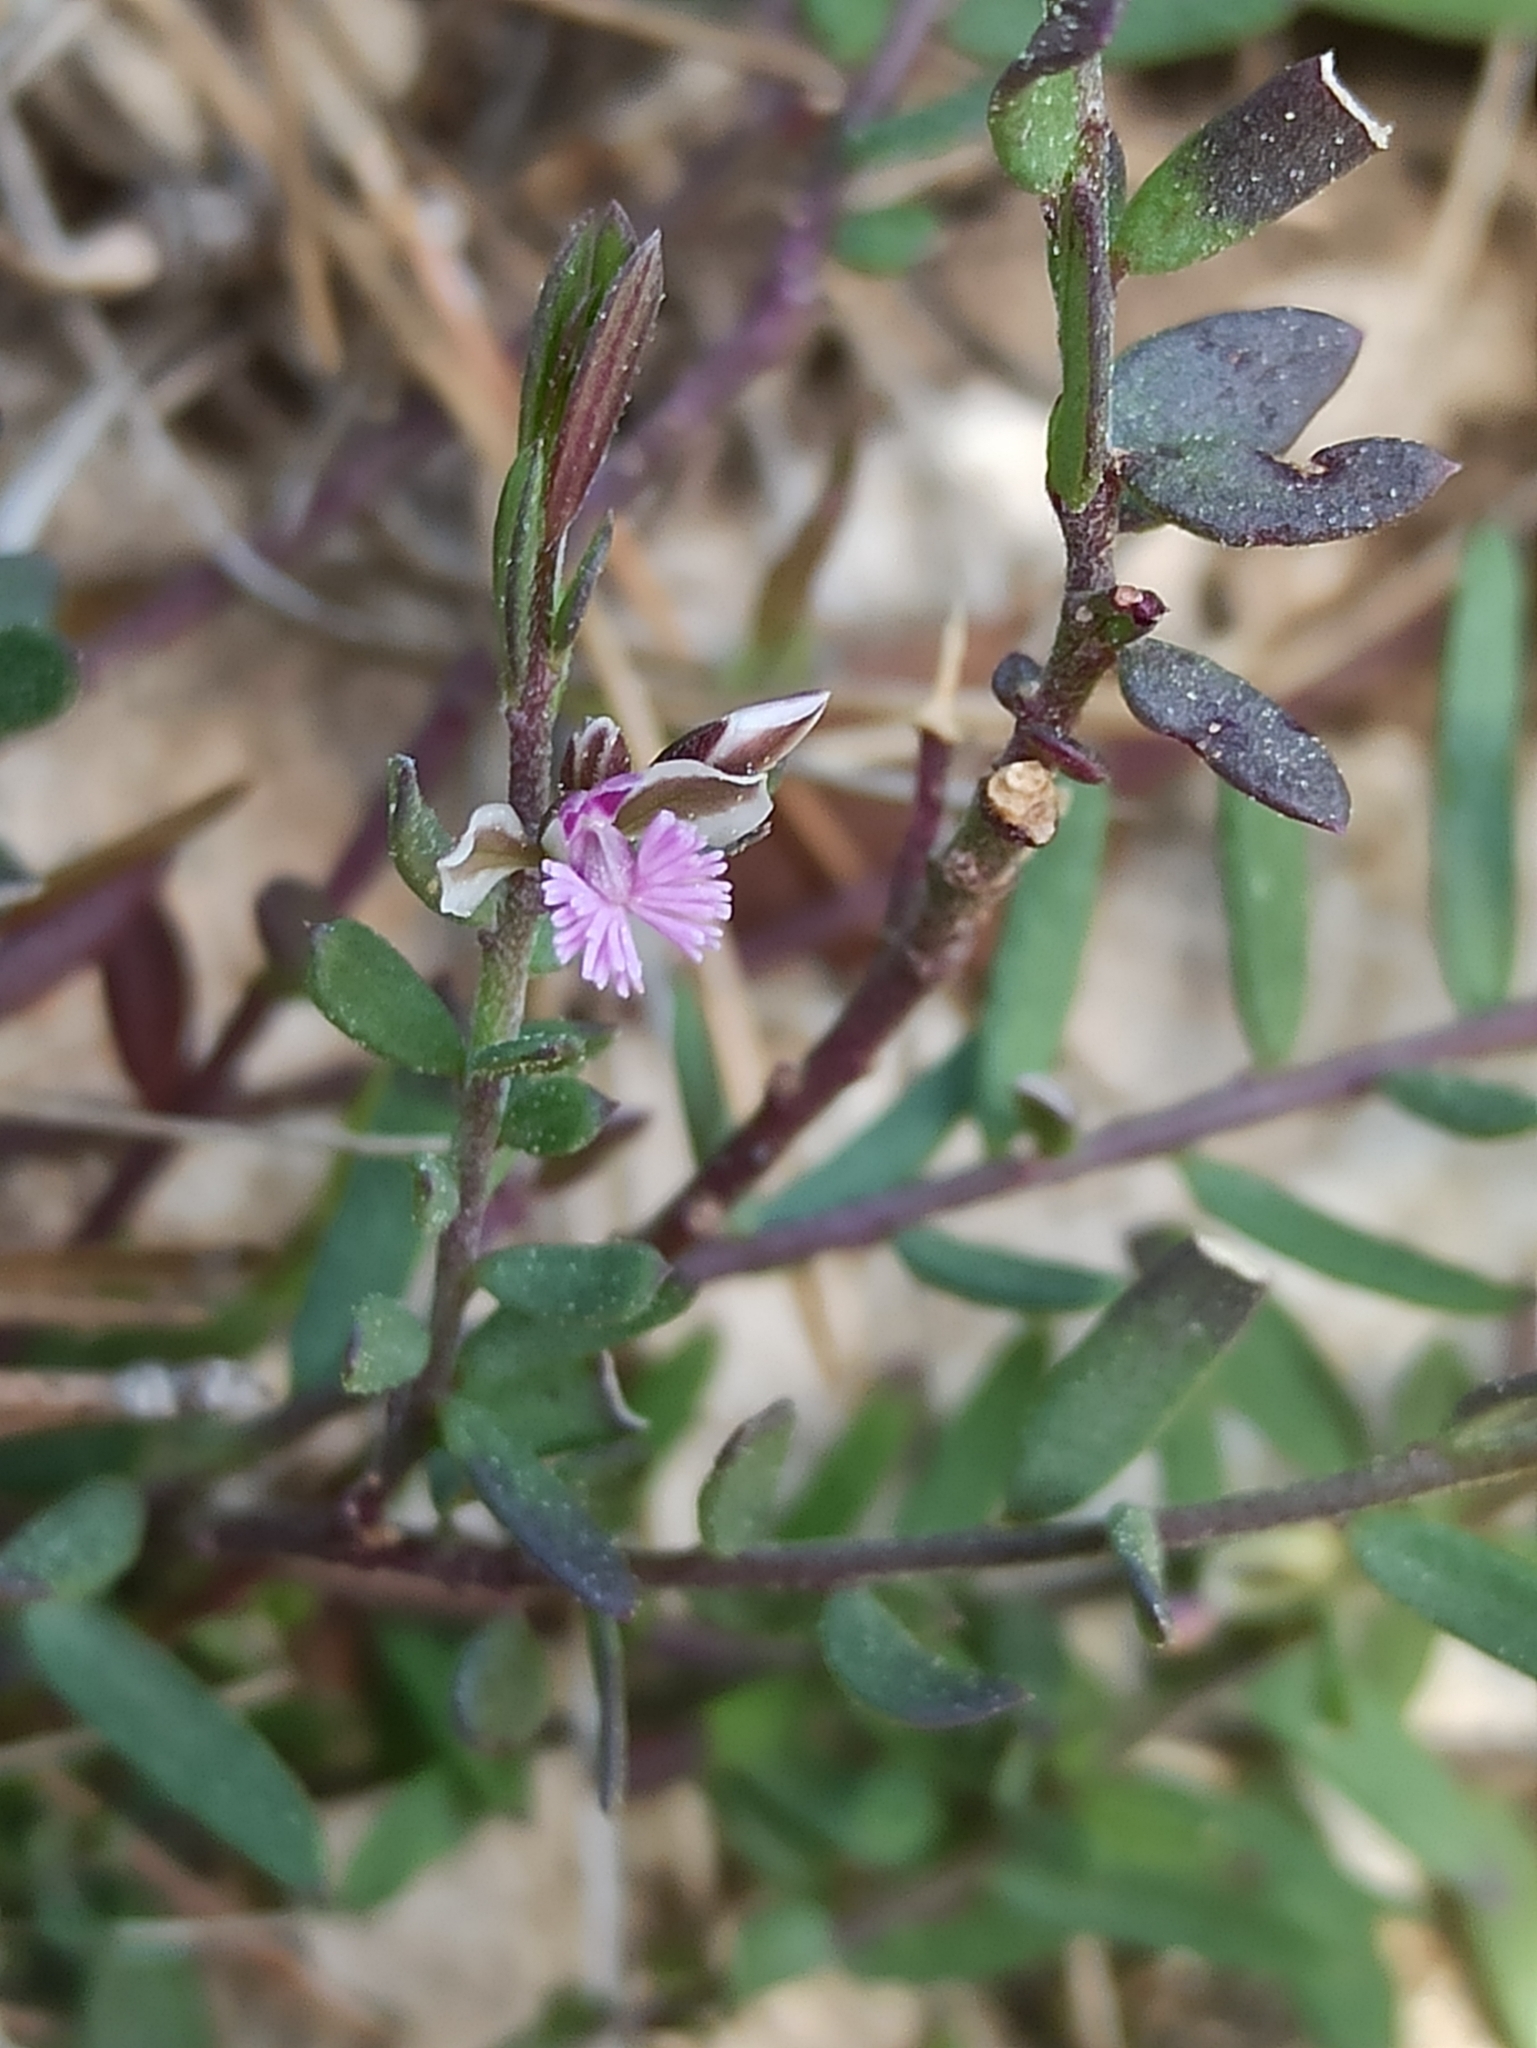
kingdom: Plantae
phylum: Tracheophyta
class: Magnoliopsida
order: Fabales
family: Polygalaceae
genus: Polygala
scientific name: Polygala rupestris
